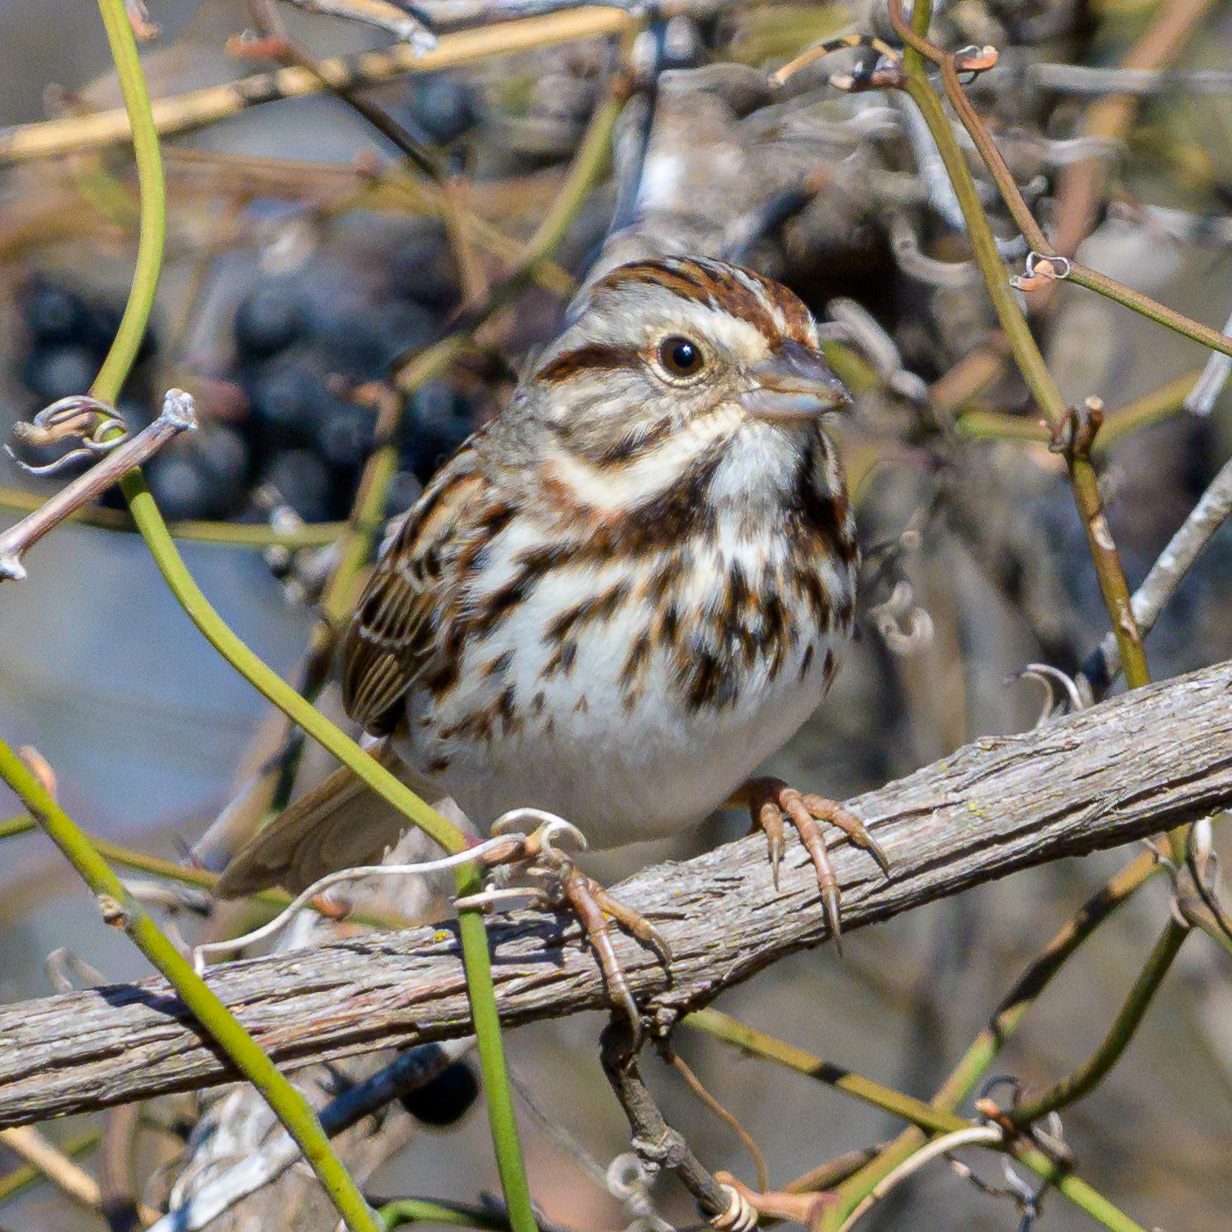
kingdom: Animalia
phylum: Chordata
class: Aves
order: Passeriformes
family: Passerellidae
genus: Melospiza
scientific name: Melospiza melodia
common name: Song sparrow
